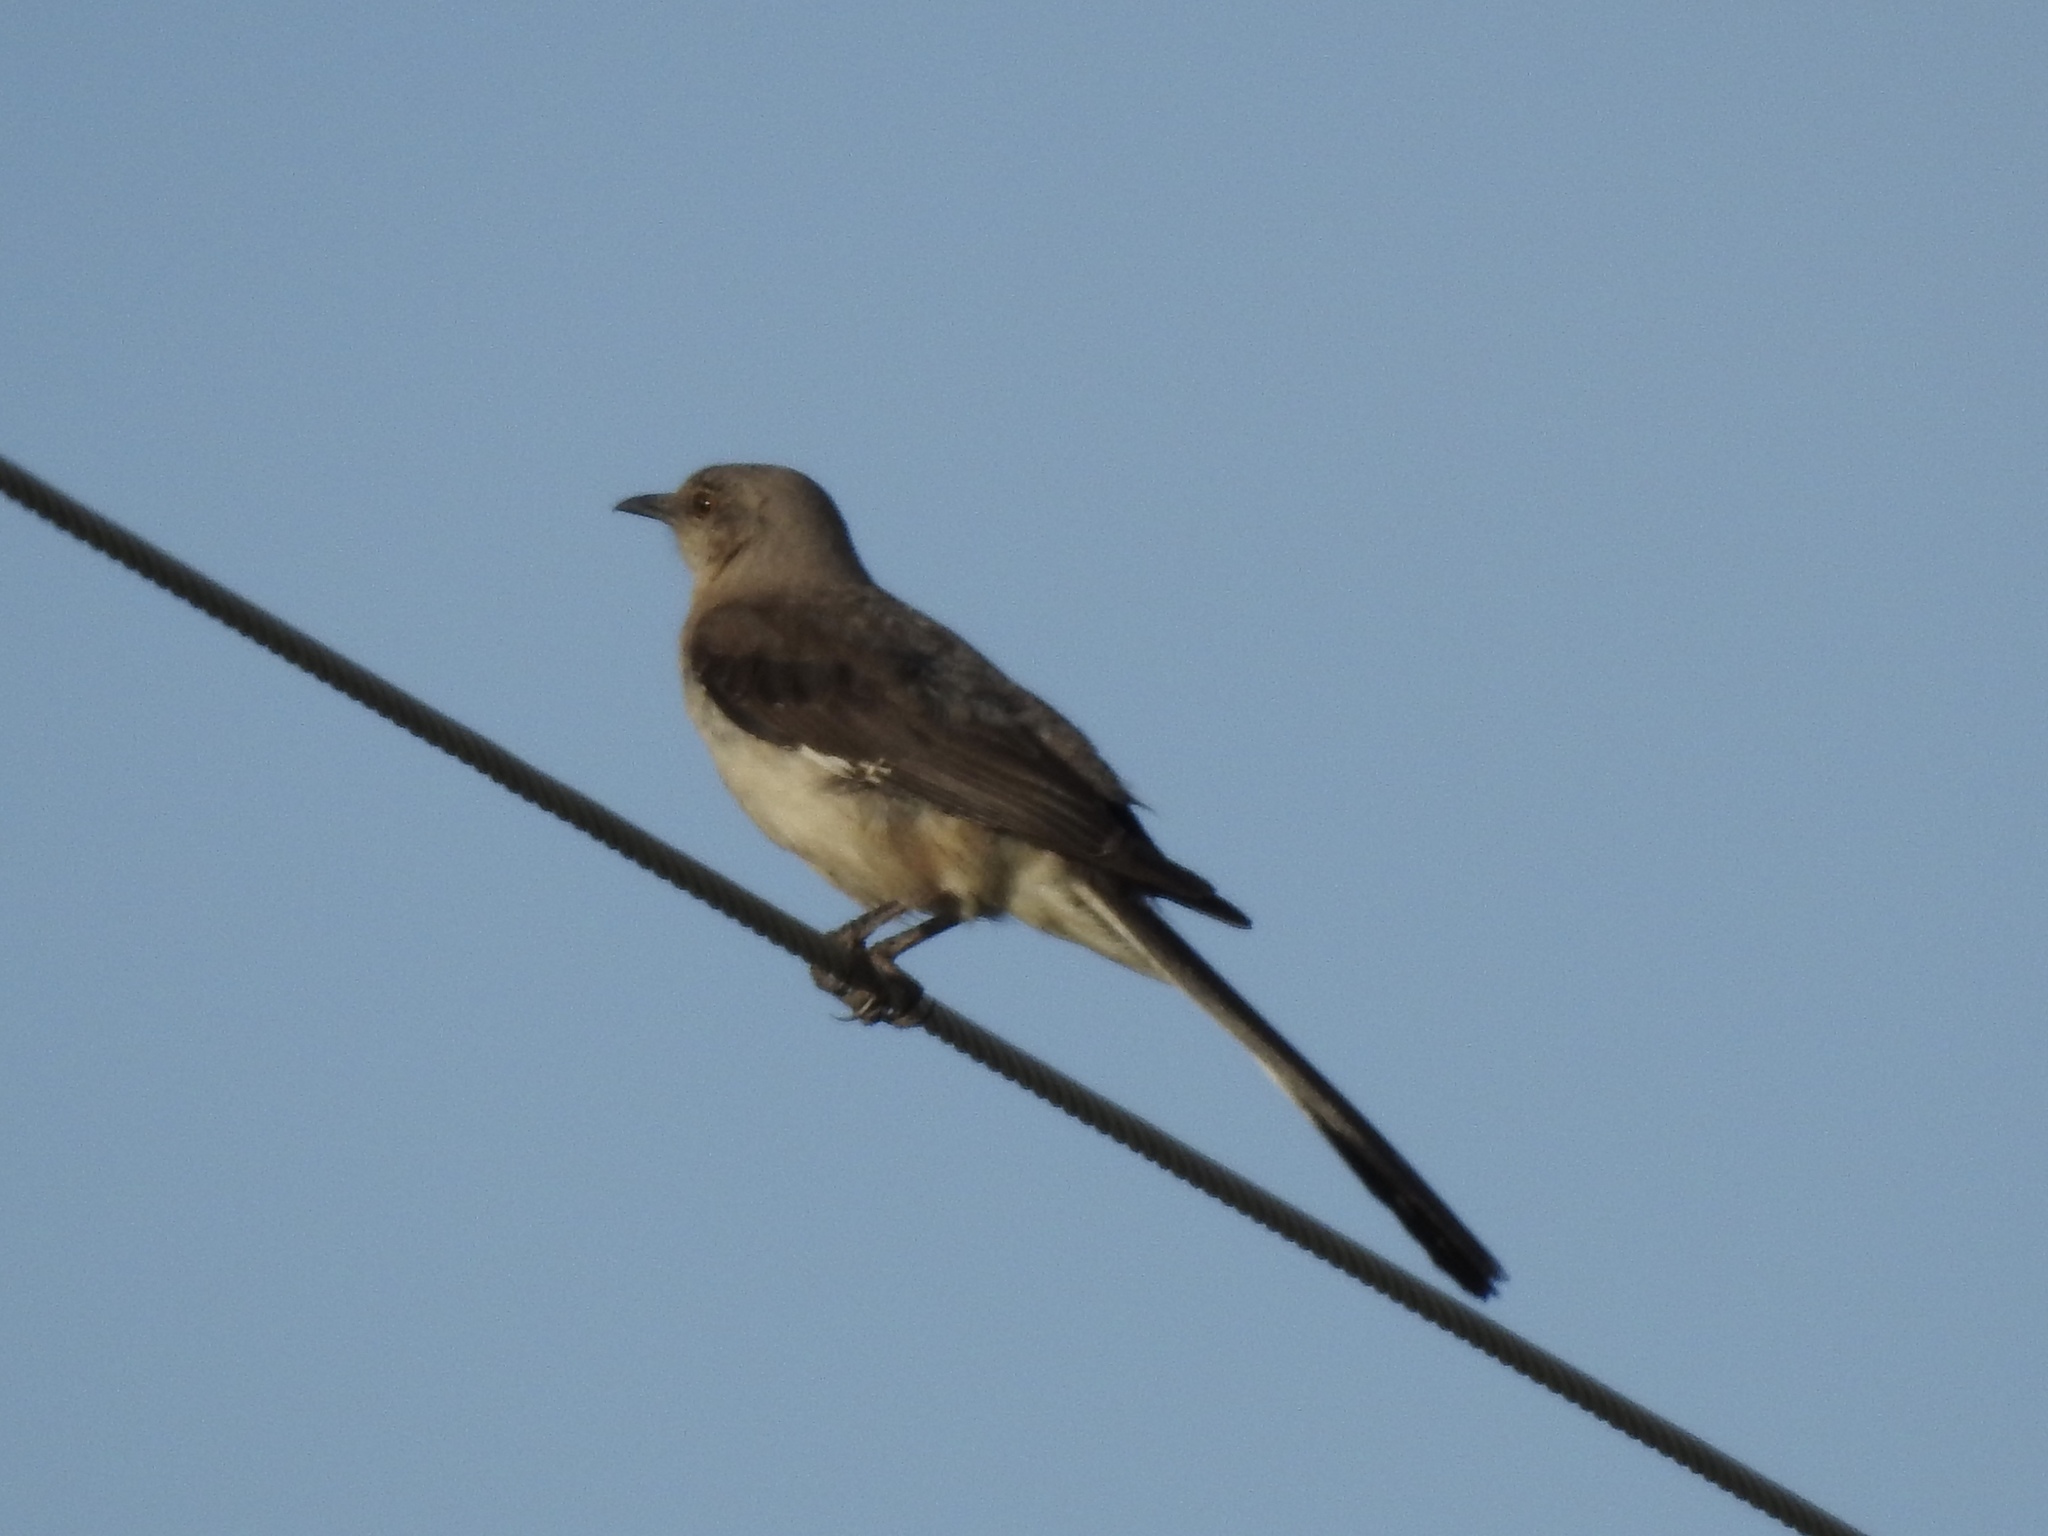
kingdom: Animalia
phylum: Chordata
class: Aves
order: Passeriformes
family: Mimidae
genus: Mimus
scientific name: Mimus polyglottos
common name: Northern mockingbird
